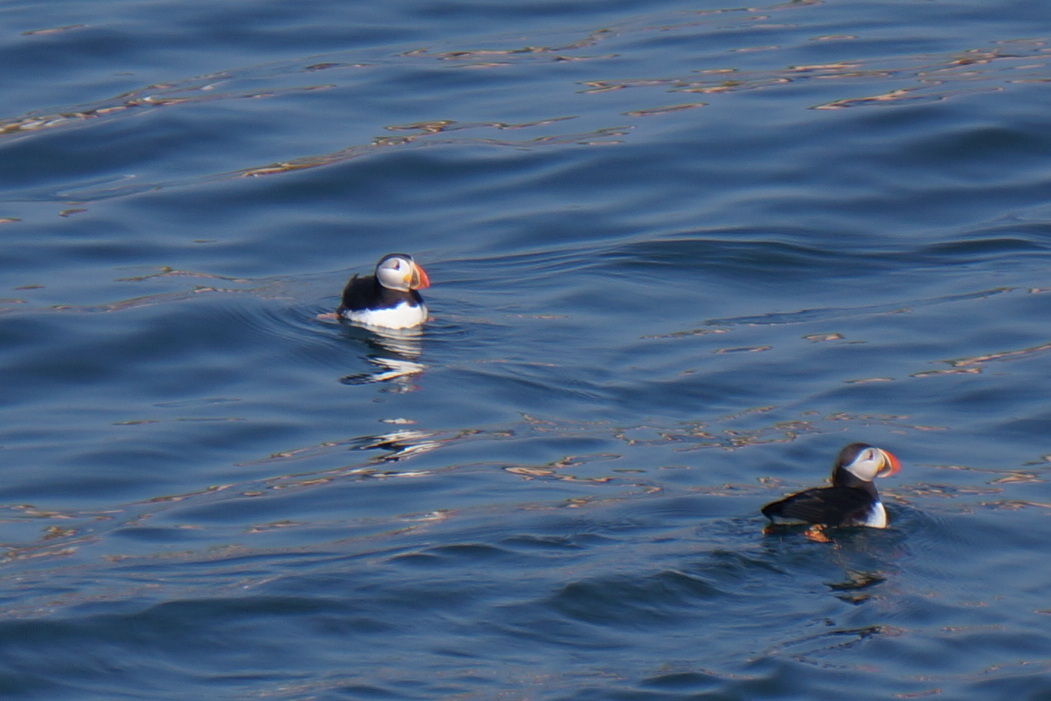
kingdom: Animalia
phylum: Chordata
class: Aves
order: Charadriiformes
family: Alcidae
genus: Fratercula
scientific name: Fratercula arctica
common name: Atlantic puffin
